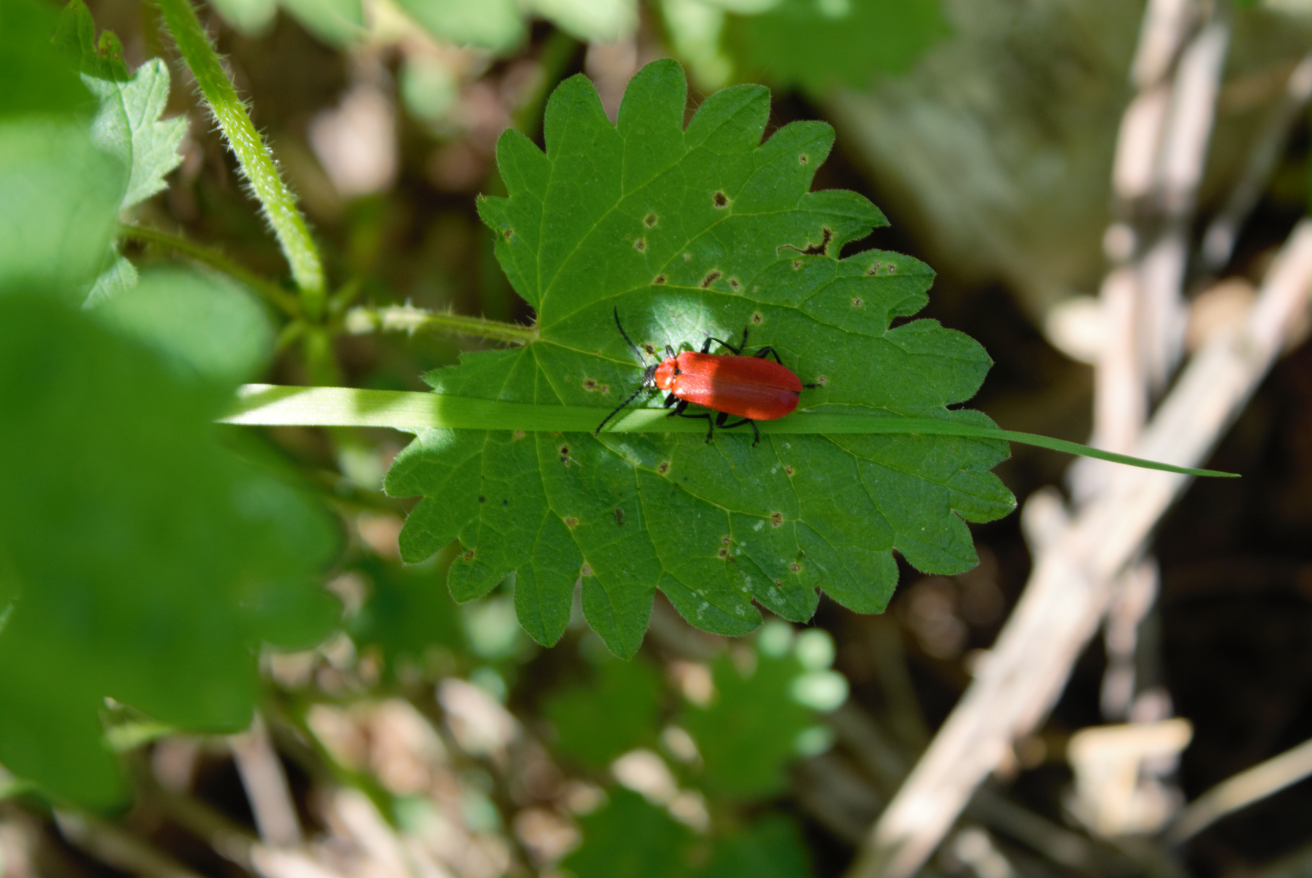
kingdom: Animalia
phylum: Arthropoda
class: Insecta
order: Coleoptera
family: Pyrochroidae
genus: Pyrochroa
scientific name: Pyrochroa coccinea
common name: Black-headed cardinal beetle
